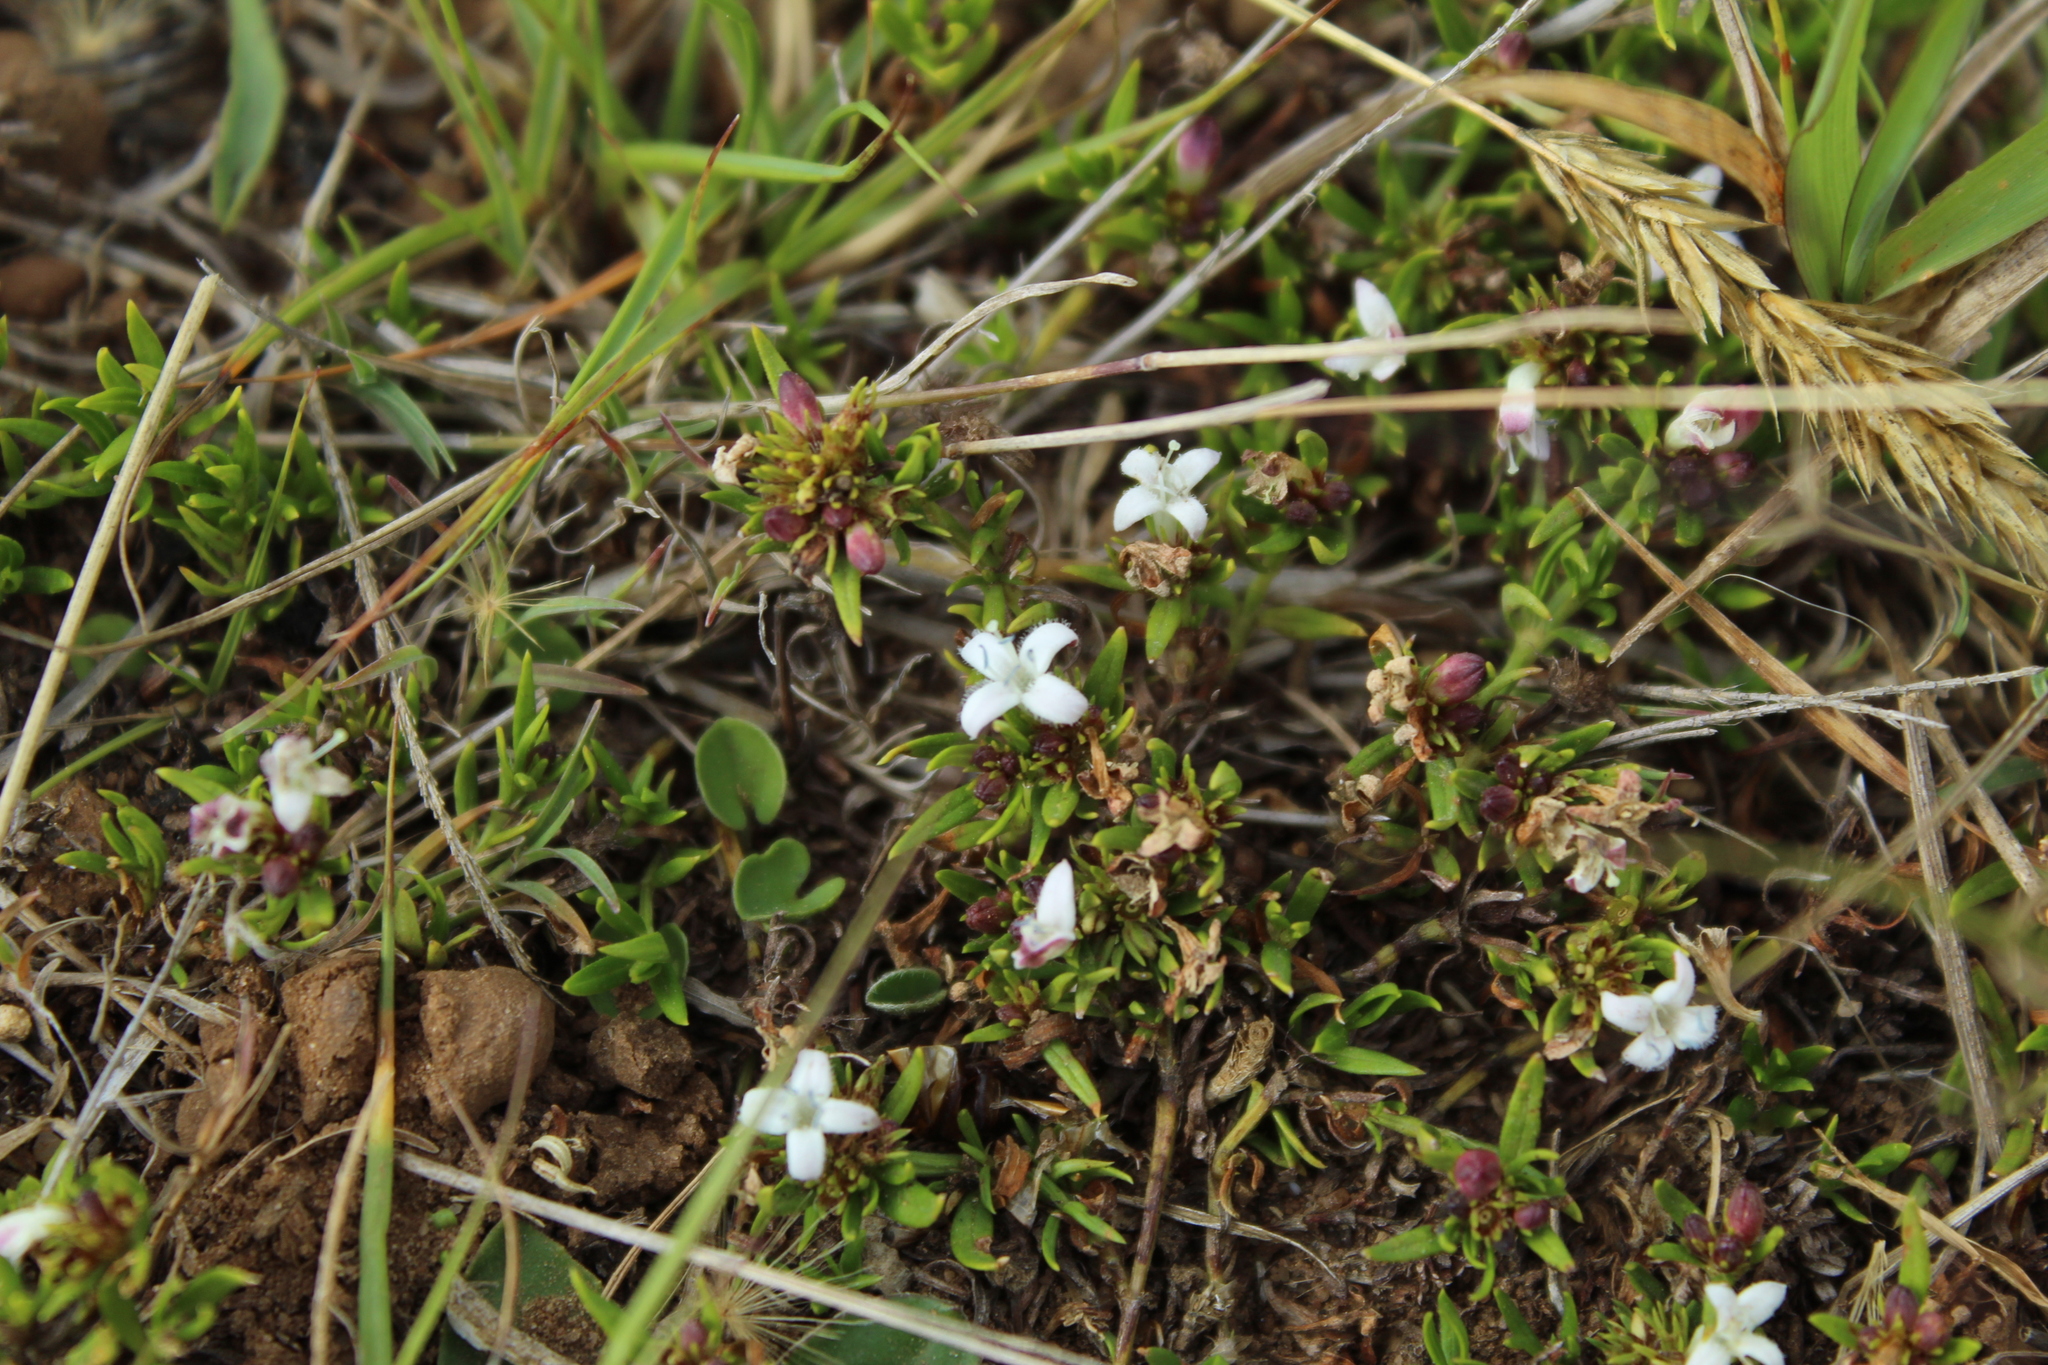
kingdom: Plantae
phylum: Tracheophyta
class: Magnoliopsida
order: Gentianales
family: Rubiaceae
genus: Spermacoce
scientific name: Spermacoce chartensis
